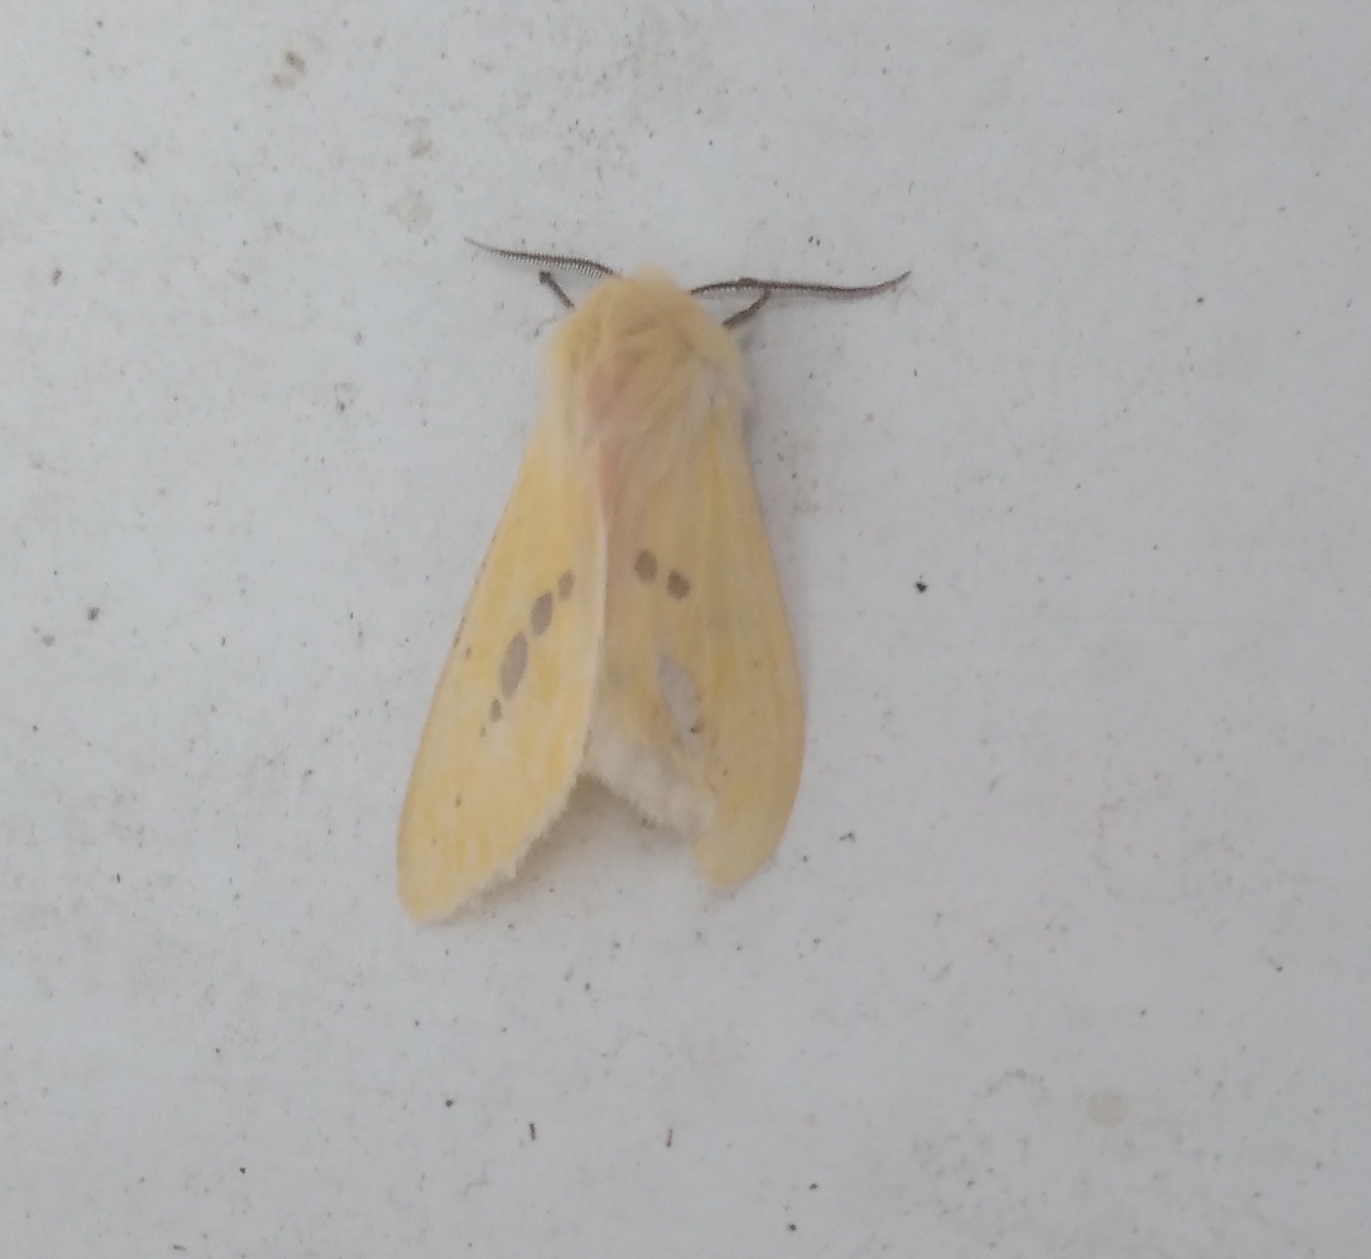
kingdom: Animalia
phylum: Arthropoda
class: Insecta
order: Lepidoptera
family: Erebidae
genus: Spilarctia
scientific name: Spilarctia lutea
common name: Buff ermine
